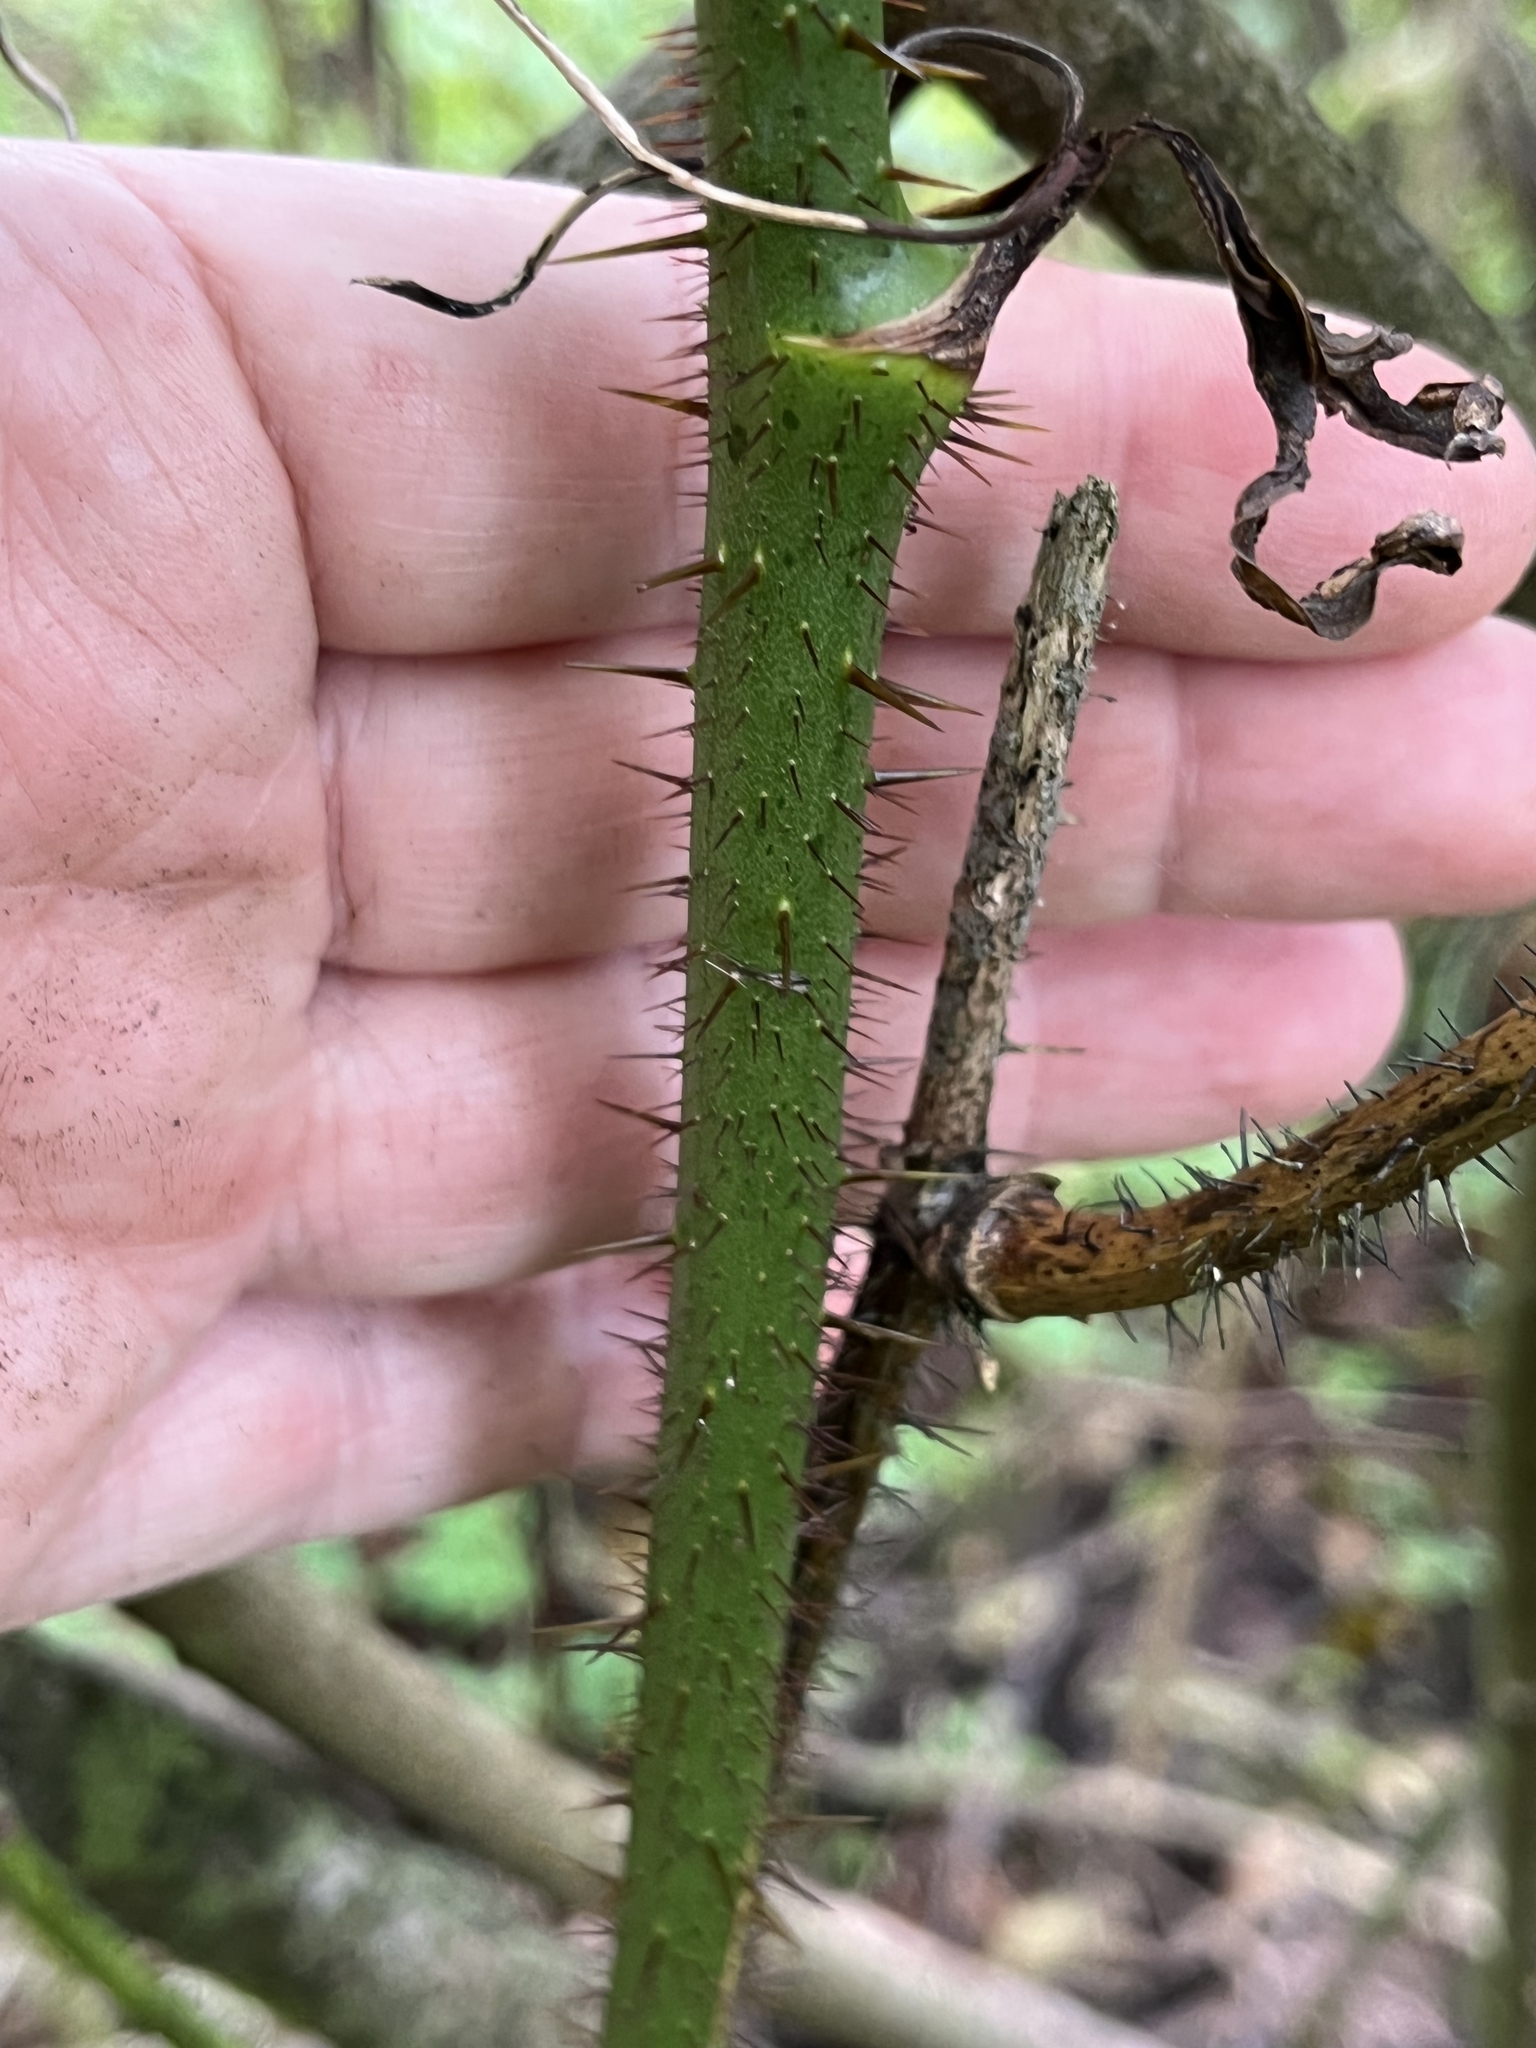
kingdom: Plantae
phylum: Tracheophyta
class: Liliopsida
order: Liliales
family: Smilacaceae
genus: Smilax
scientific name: Smilax tamnoides
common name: Hellfetter
